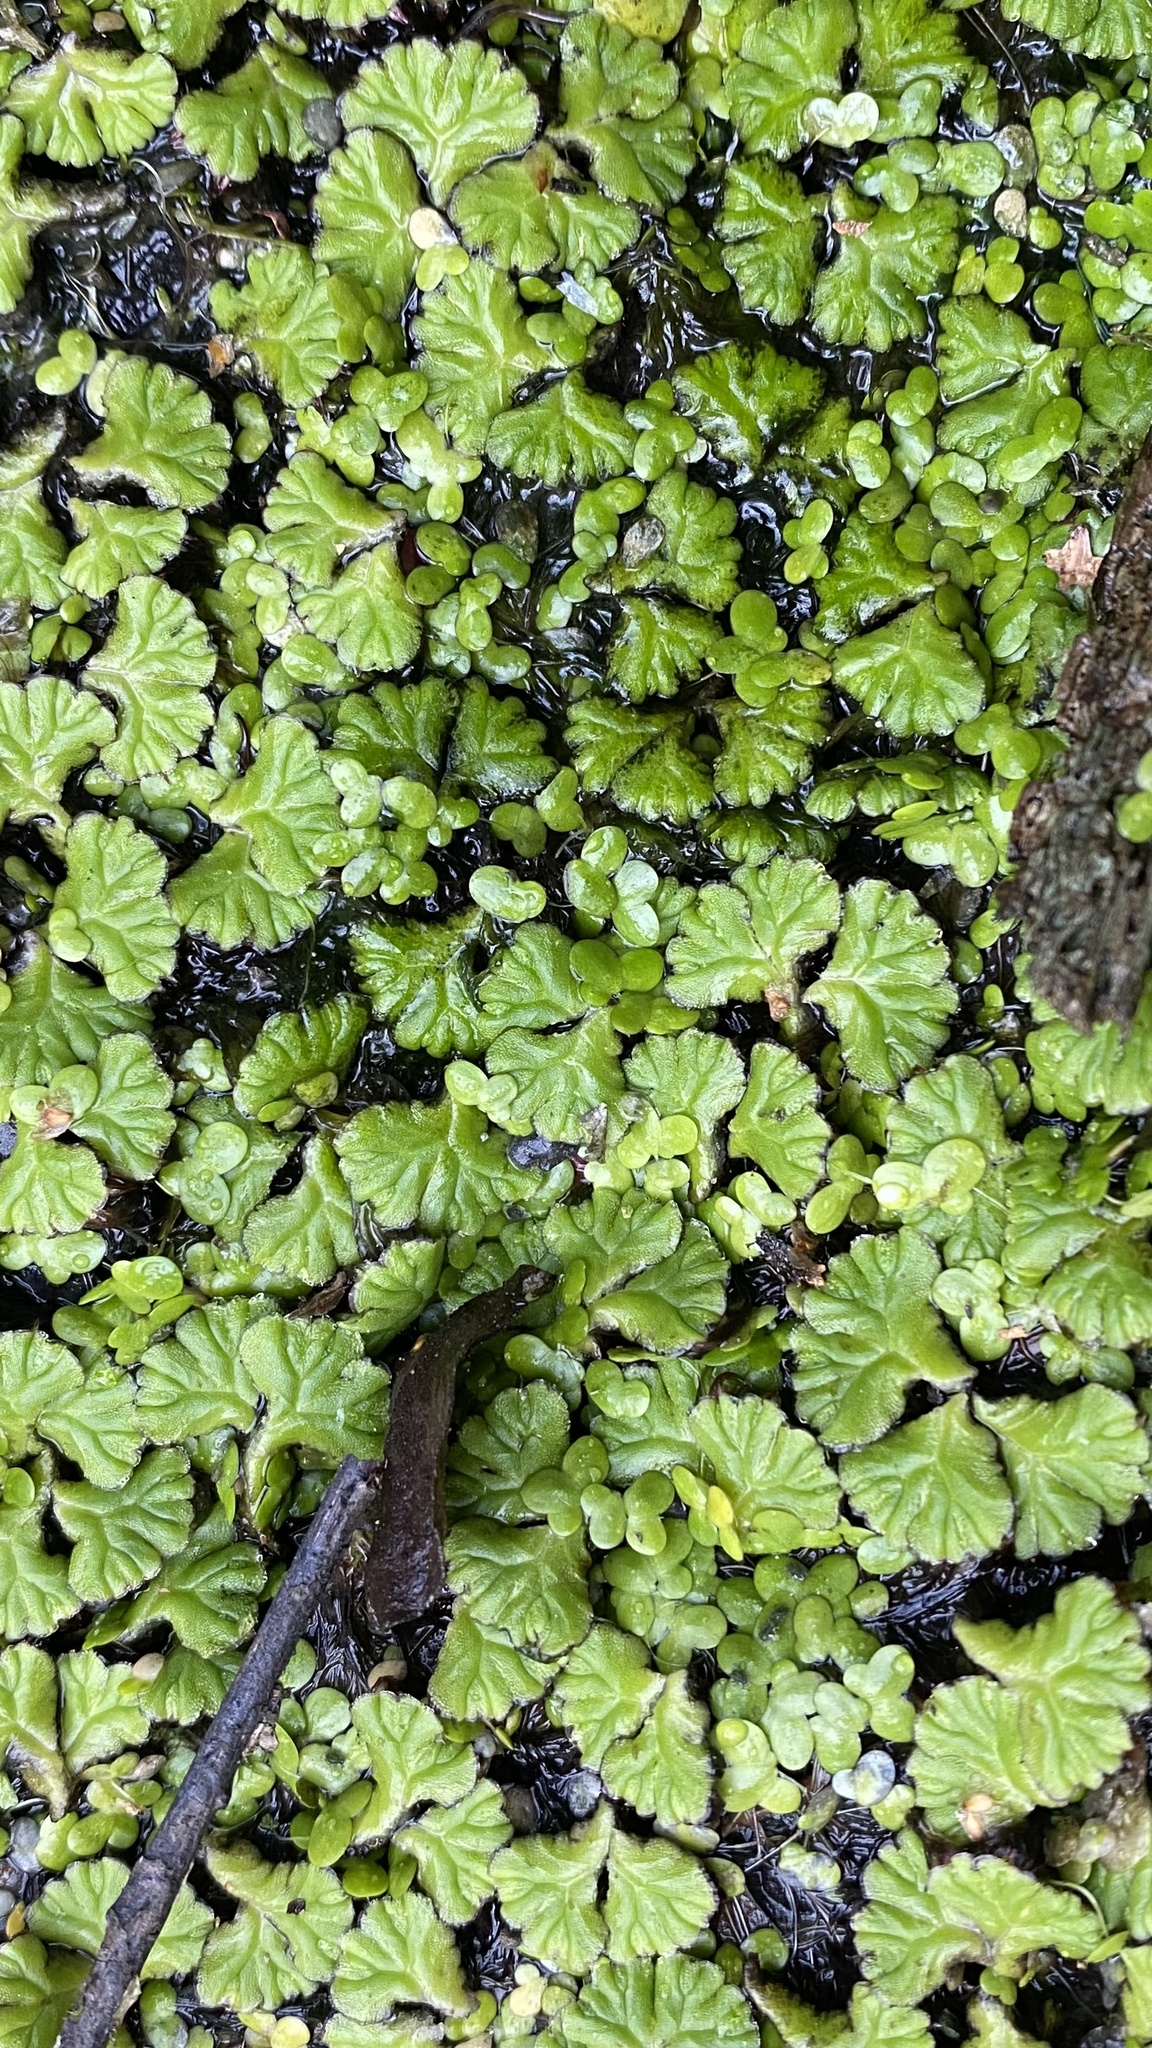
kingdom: Plantae
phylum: Marchantiophyta
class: Marchantiopsida
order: Marchantiales
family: Ricciaceae
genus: Ricciocarpos
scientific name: Ricciocarpos natans
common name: Purple-fringed liverwort
